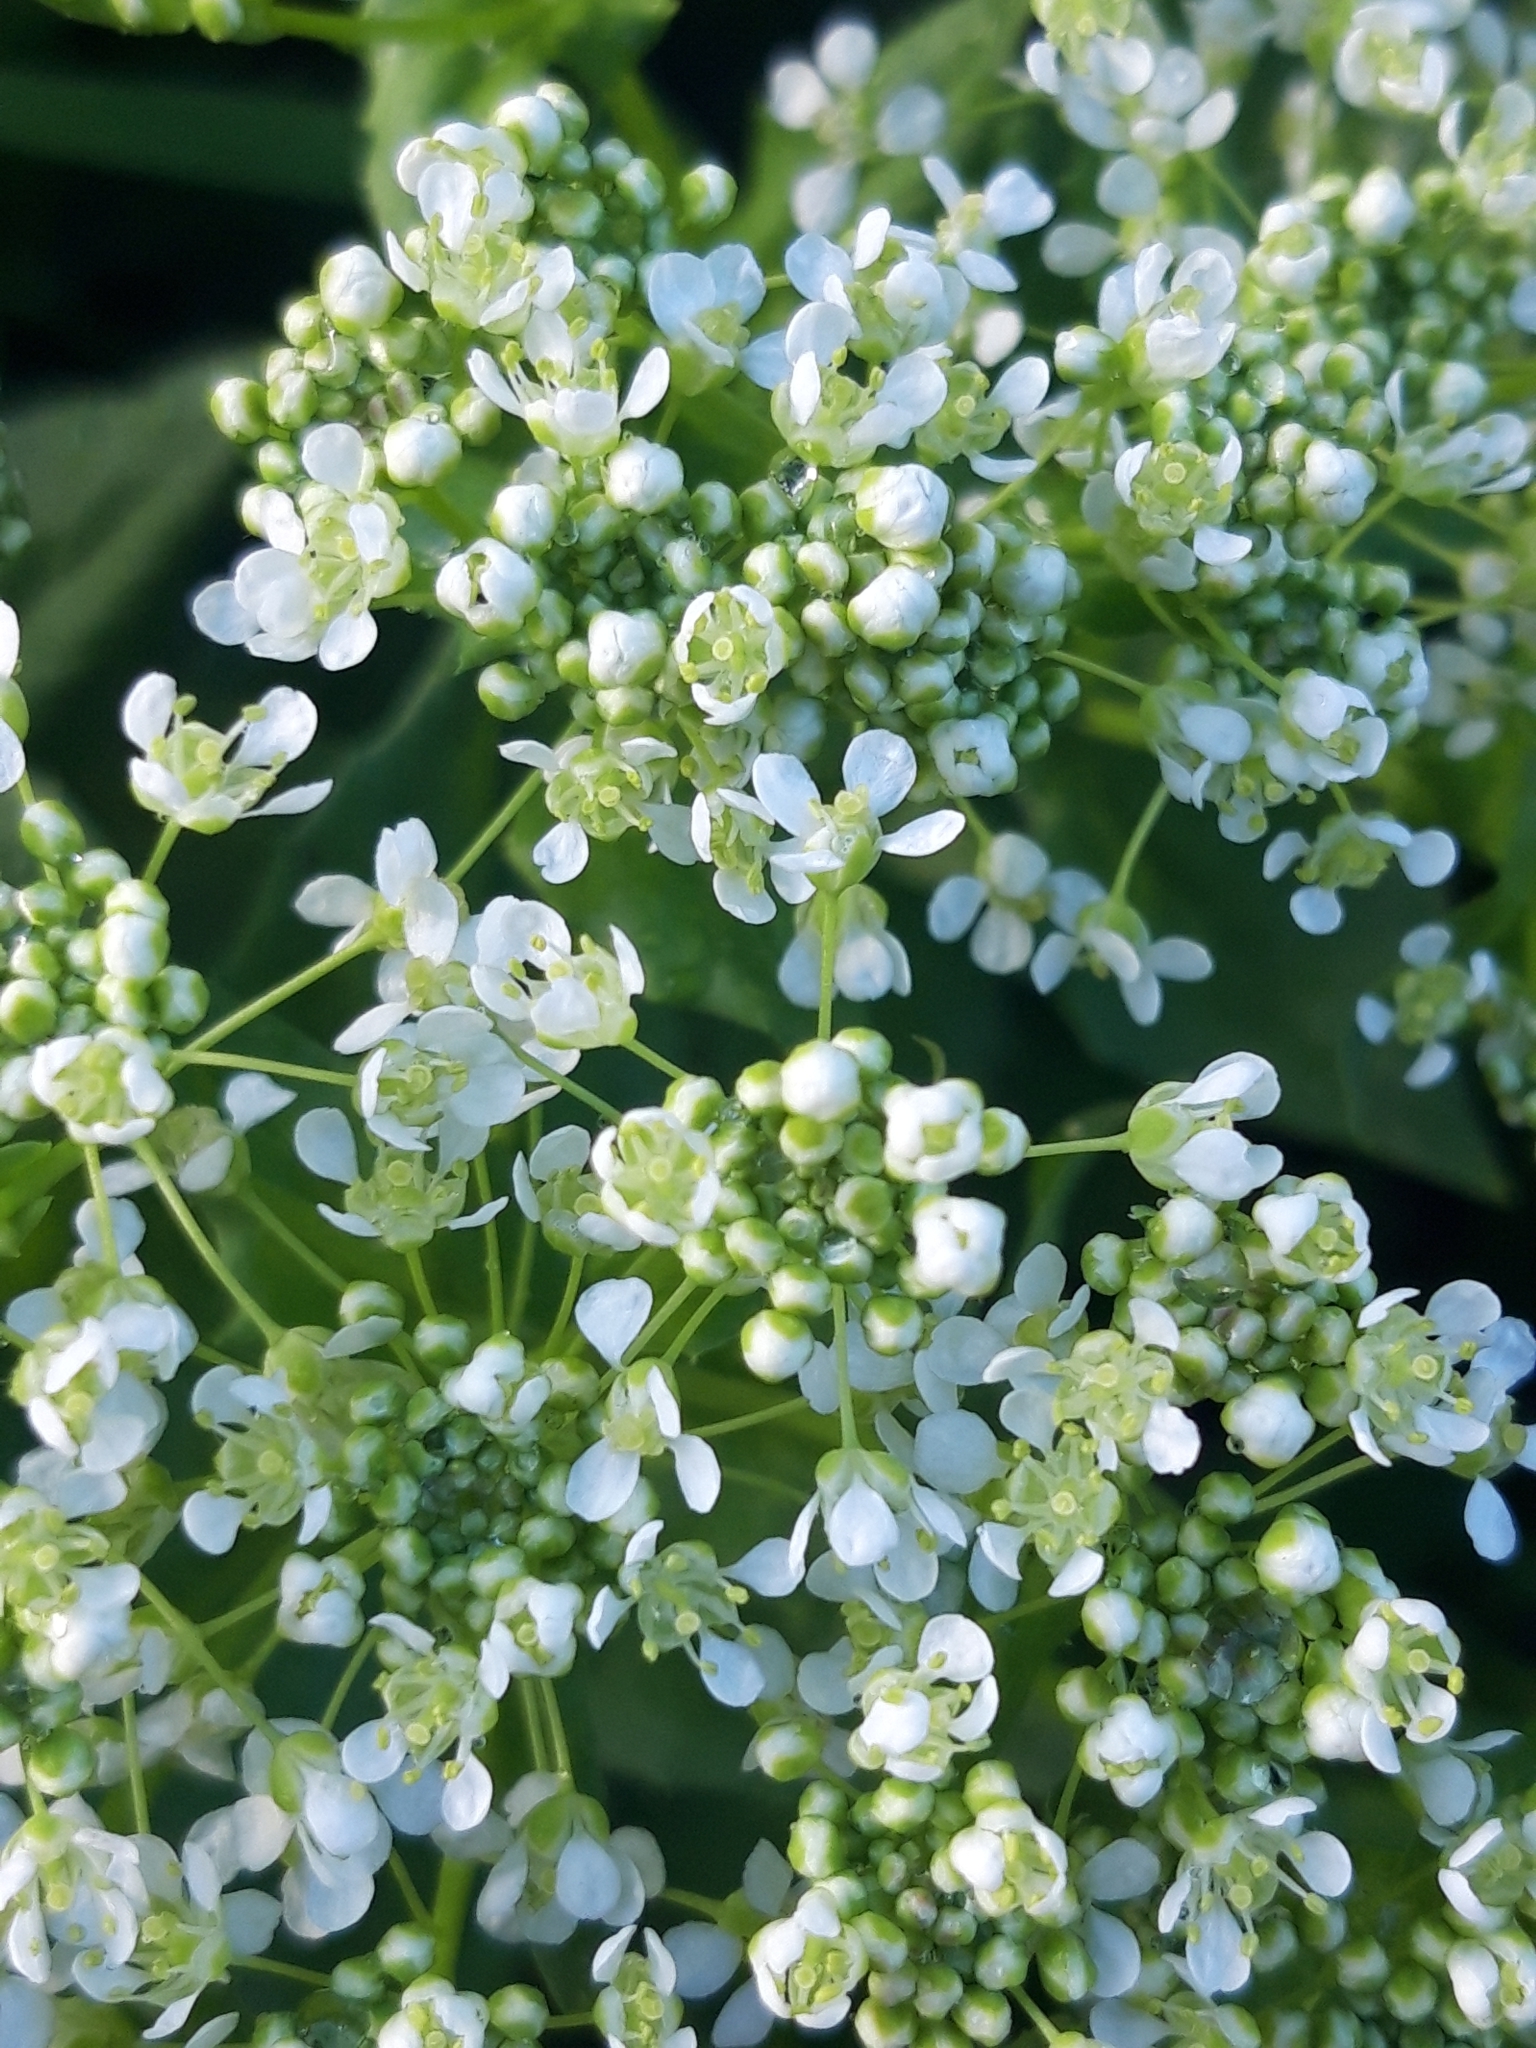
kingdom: Plantae
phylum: Tracheophyta
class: Magnoliopsida
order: Brassicales
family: Brassicaceae
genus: Lepidium
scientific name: Lepidium draba
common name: Hoary cress
